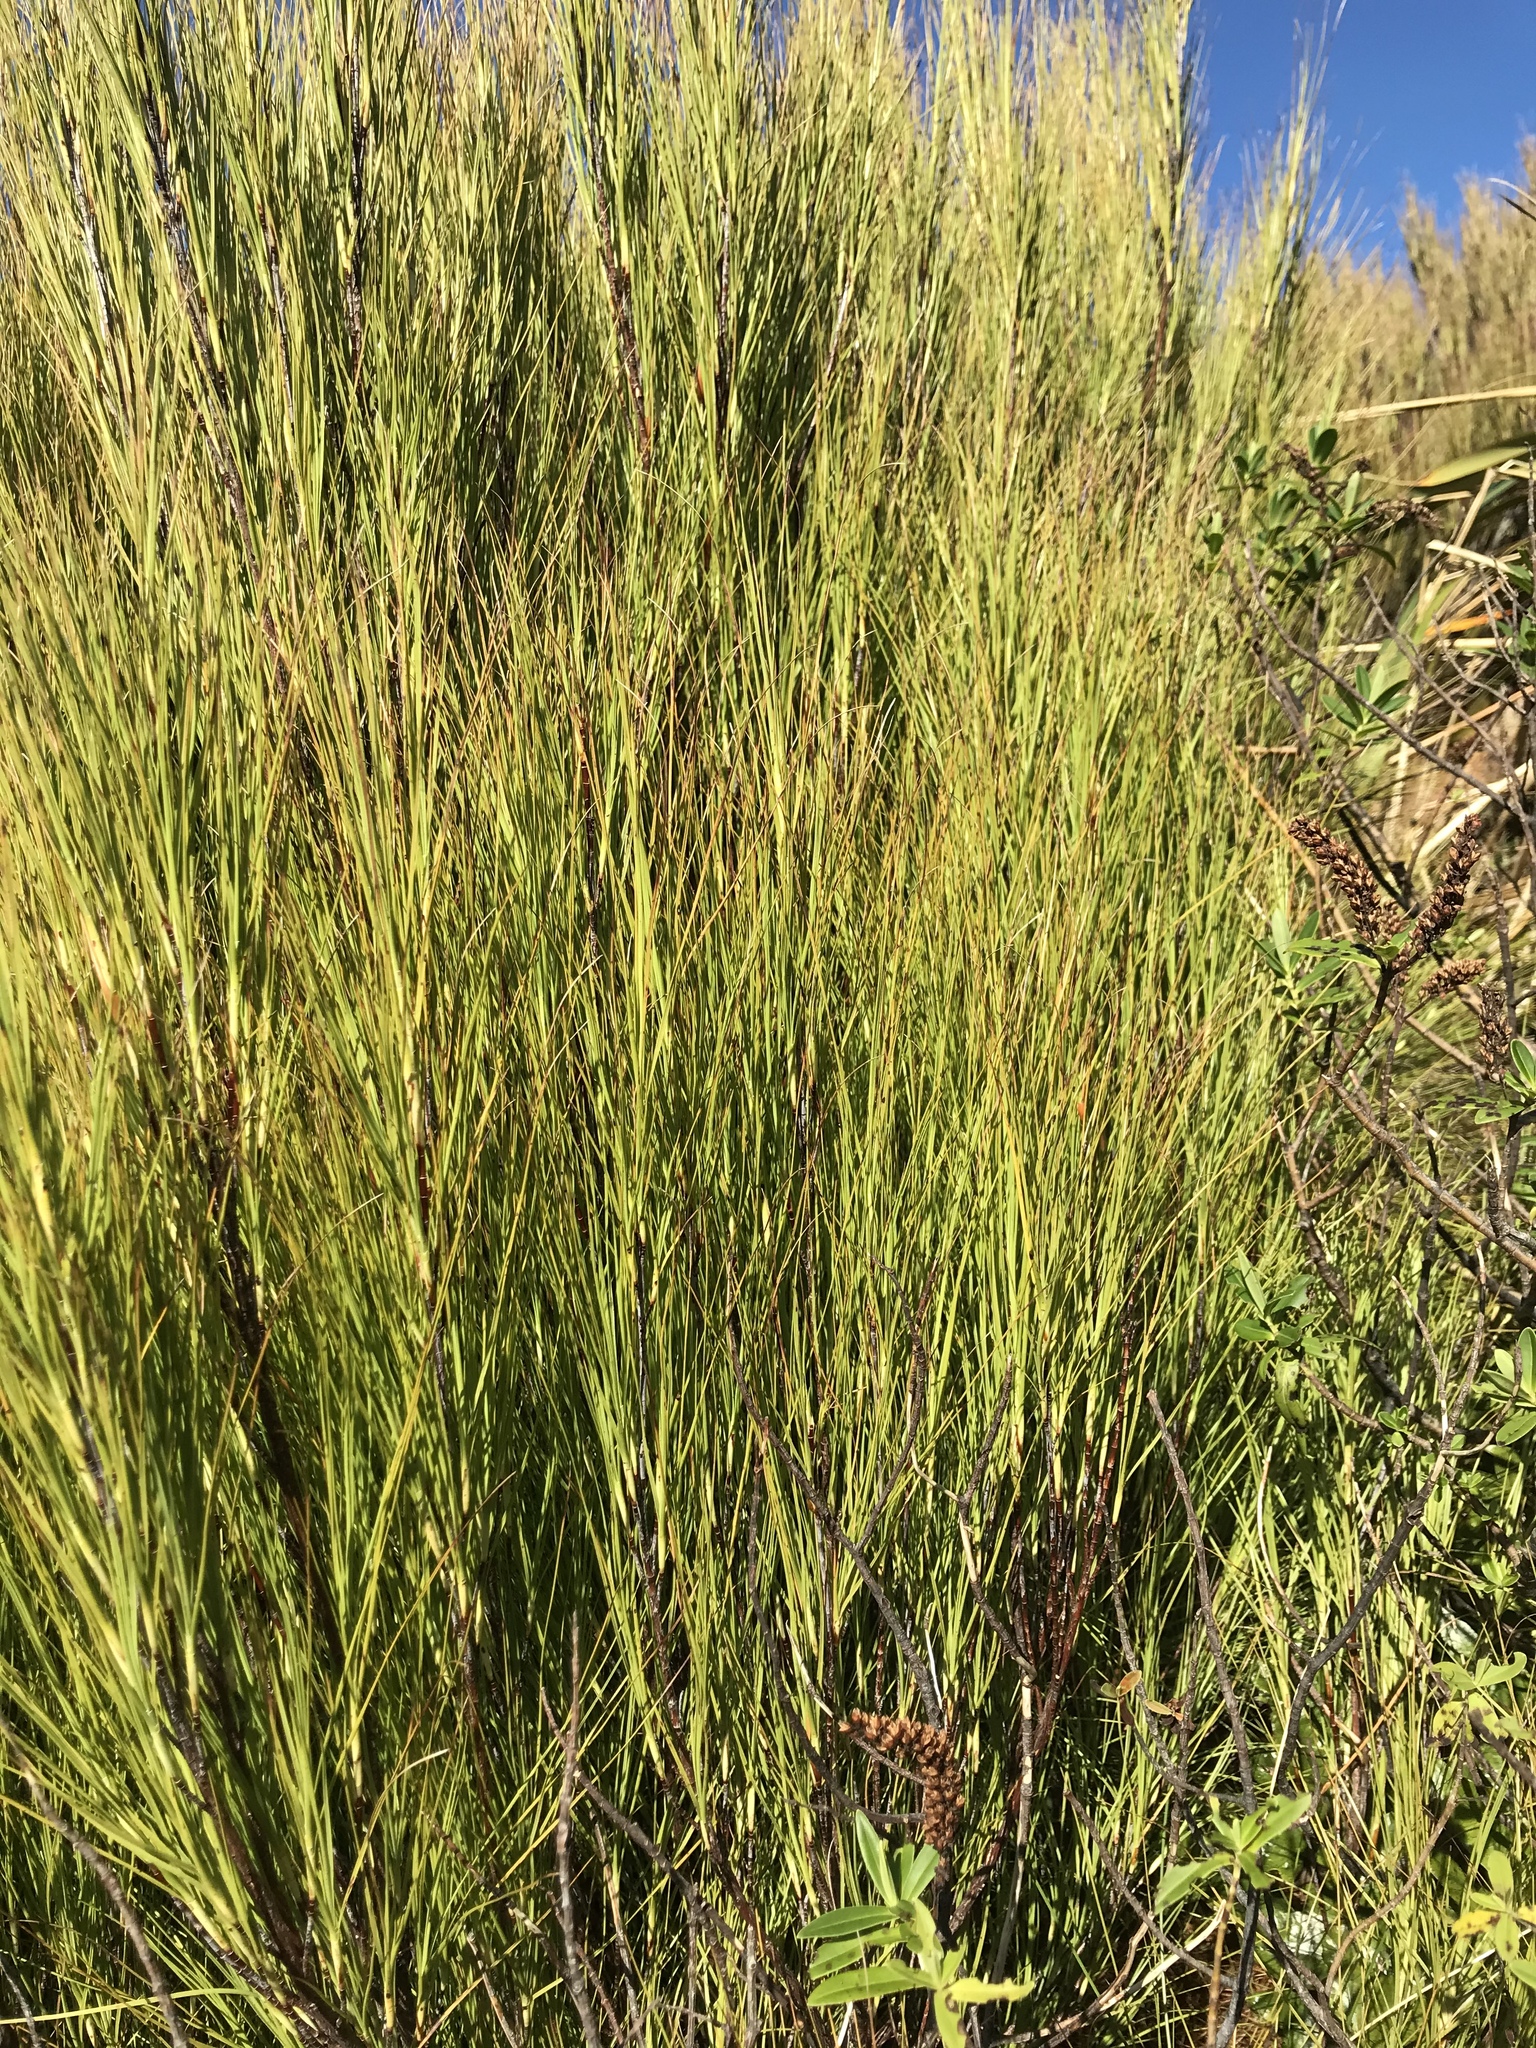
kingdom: Plantae
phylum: Tracheophyta
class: Magnoliopsida
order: Ericales
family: Ericaceae
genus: Dracophyllum
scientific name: Dracophyllum filifolium
